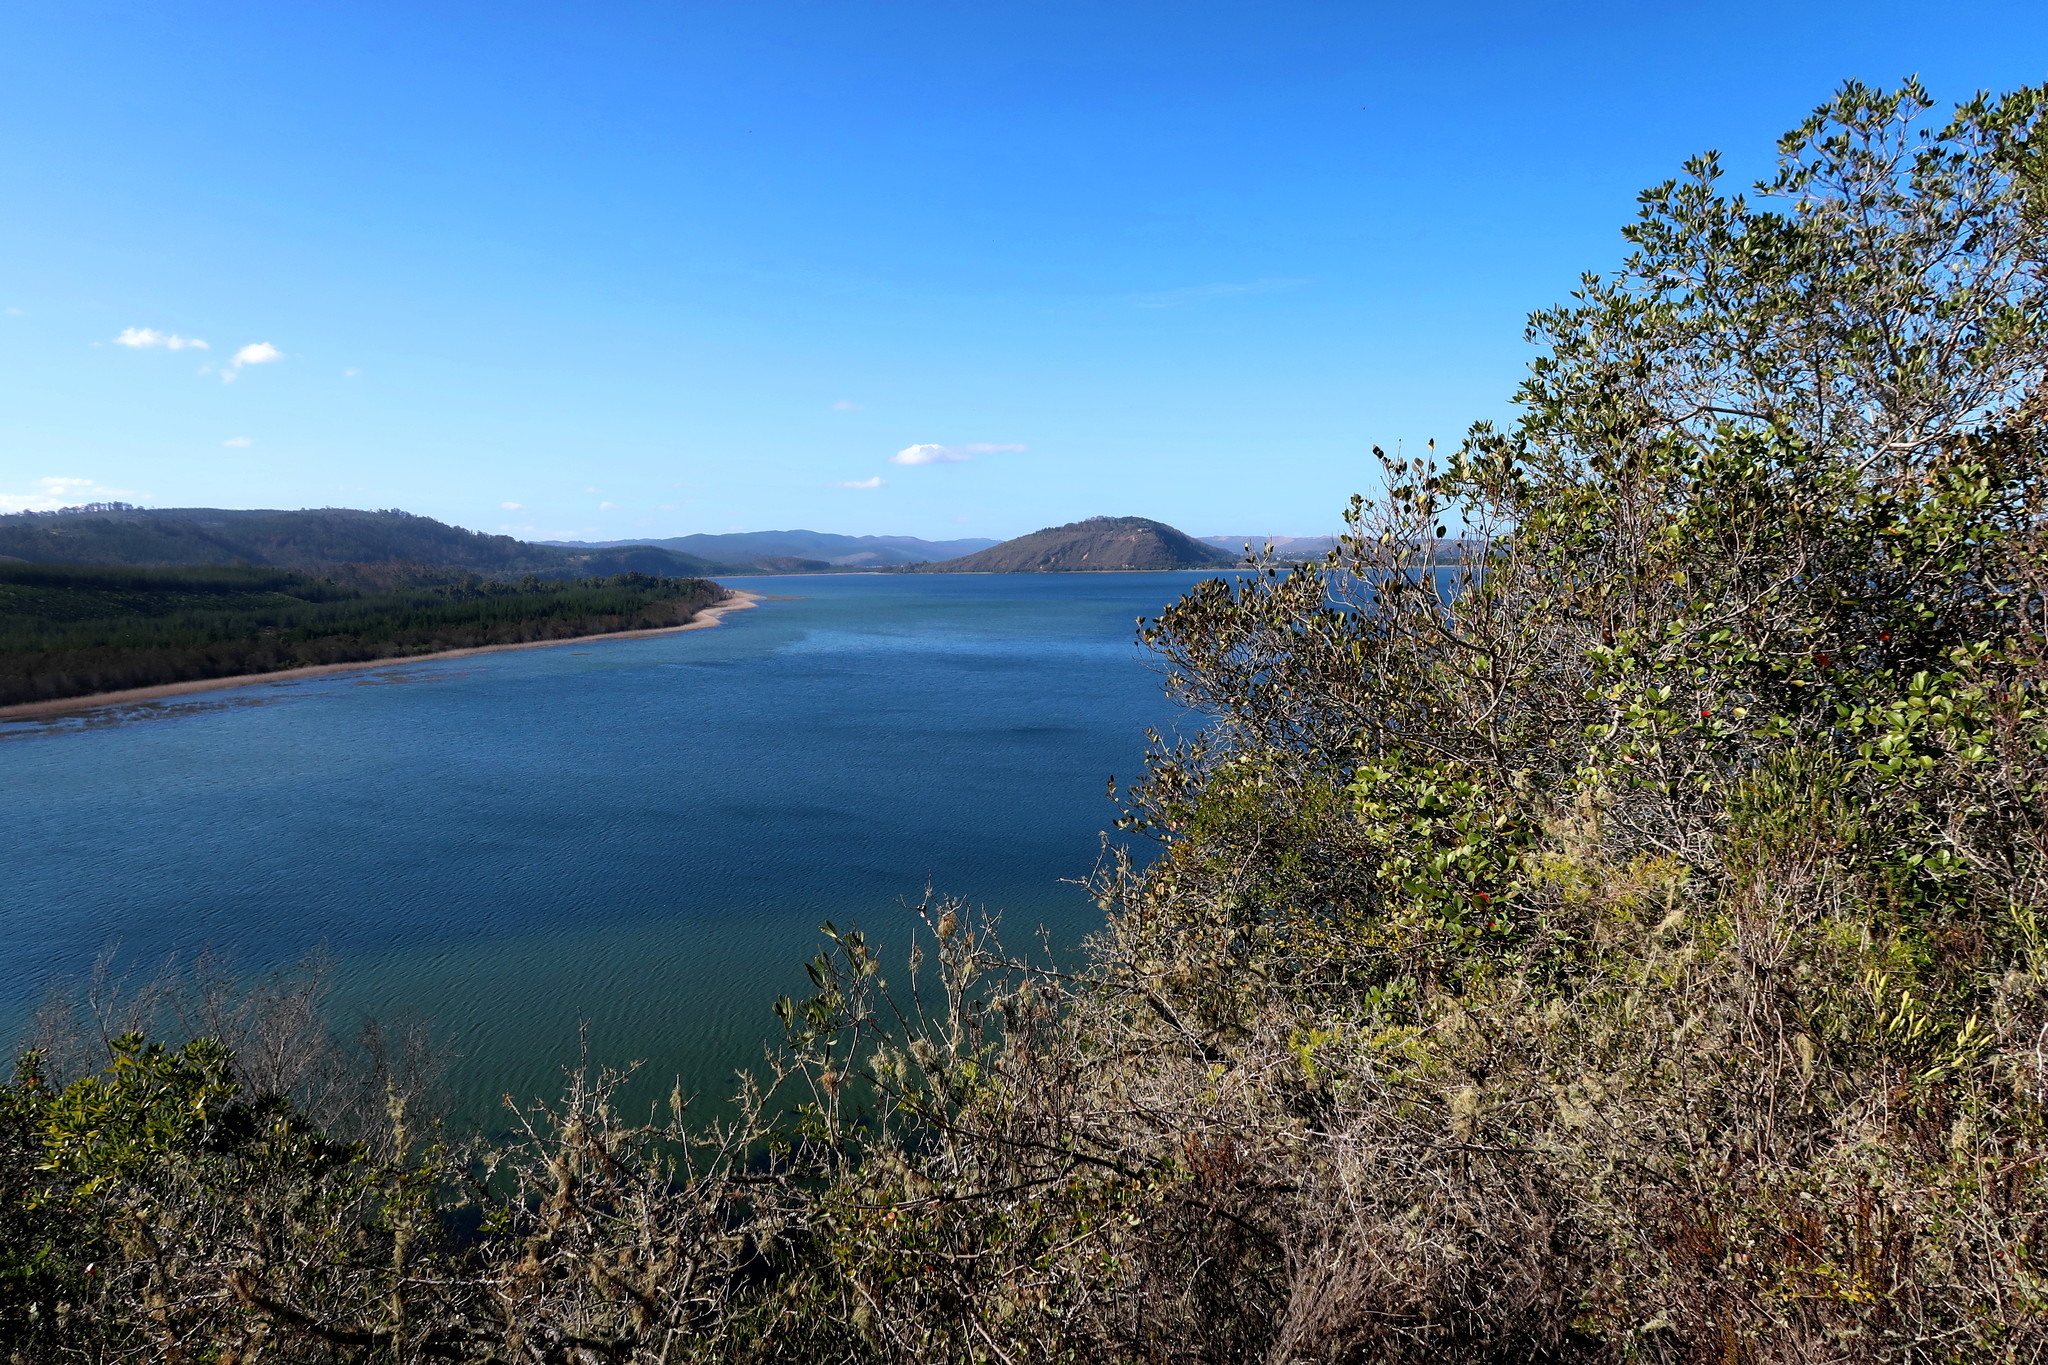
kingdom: Plantae
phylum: Tracheophyta
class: Magnoliopsida
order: Apiales
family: Pittosporaceae
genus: Pittosporum
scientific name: Pittosporum viridiflorum
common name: Cape cheesewood
